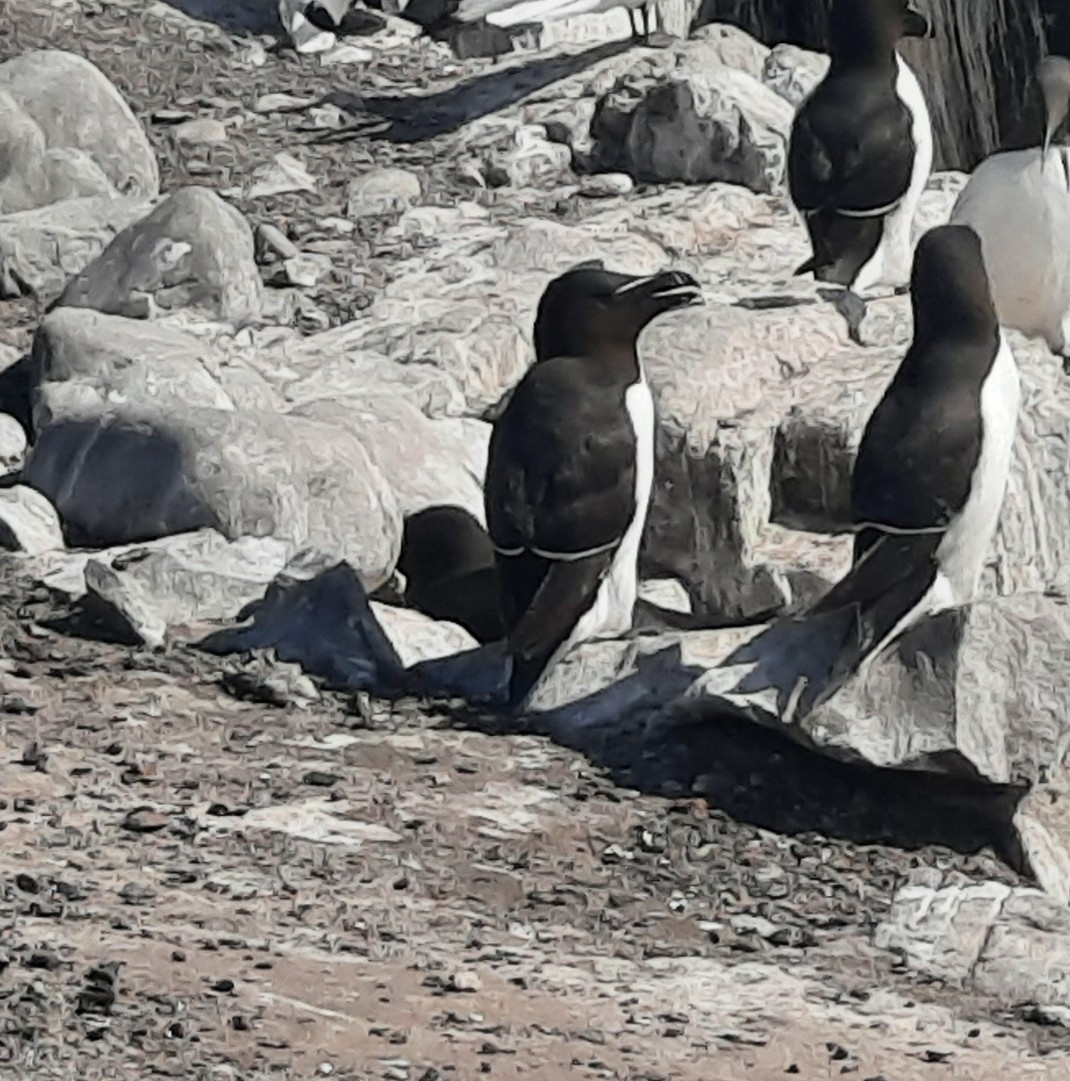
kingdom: Animalia
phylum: Chordata
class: Aves
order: Charadriiformes
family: Alcidae
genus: Alca
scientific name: Alca torda
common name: Razorbill
